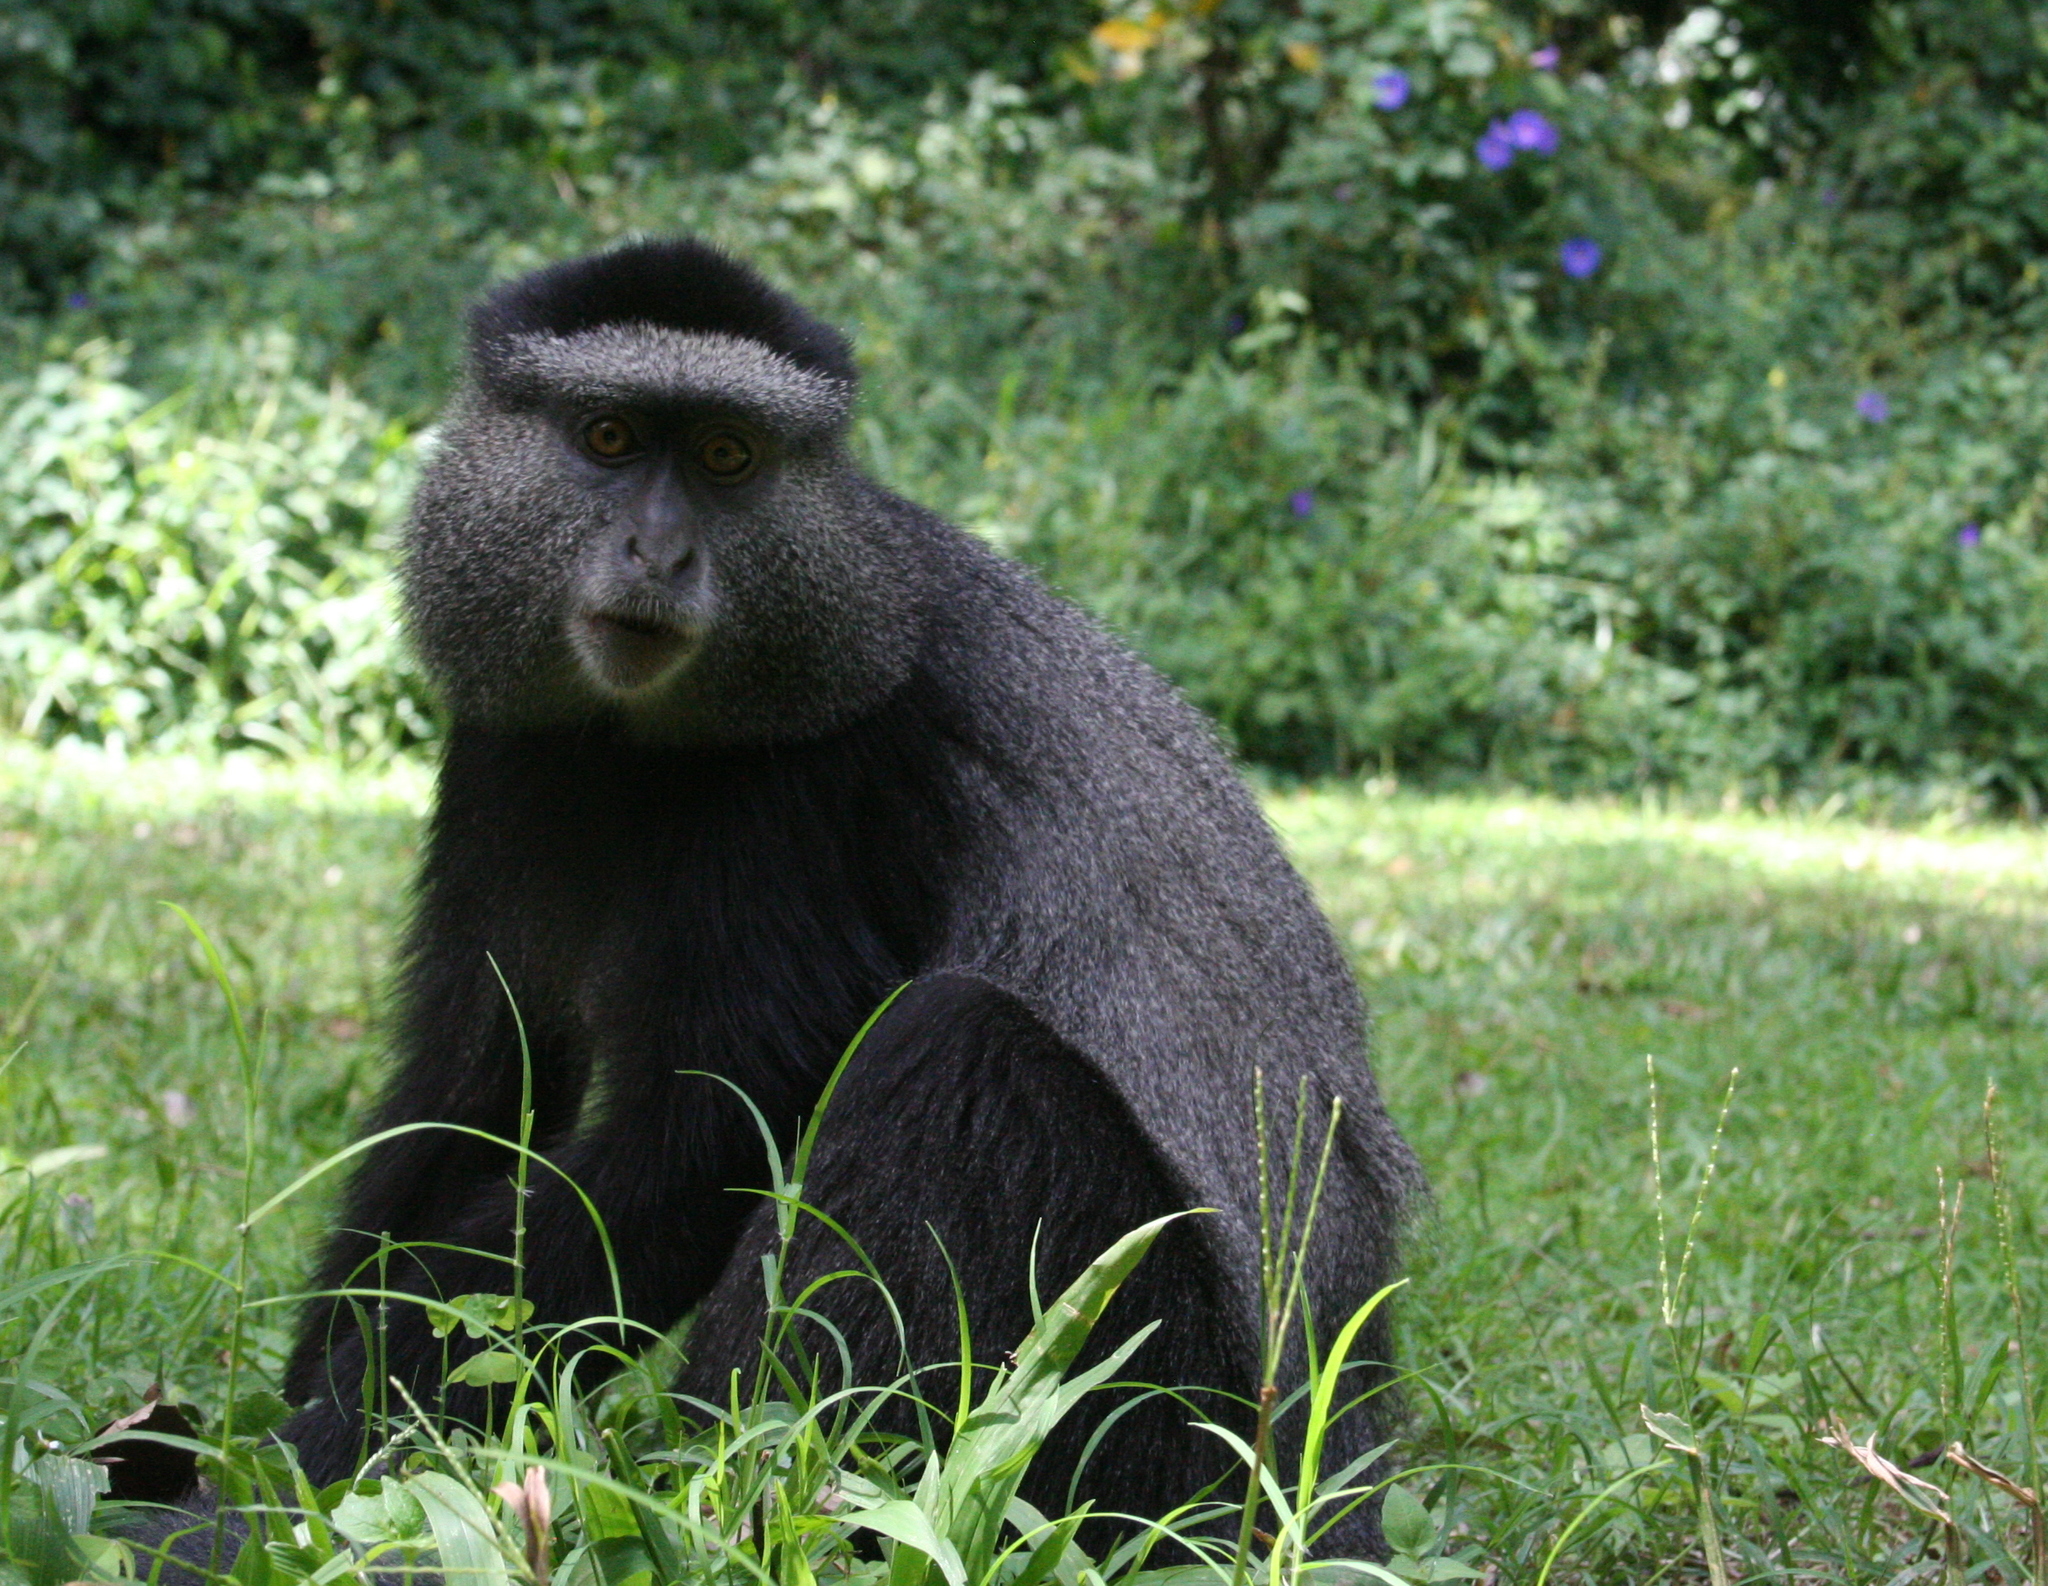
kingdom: Animalia
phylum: Chordata
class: Mammalia
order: Primates
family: Cercopithecidae
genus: Cercopithecus
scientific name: Cercopithecus mitis
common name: Blue monkey
